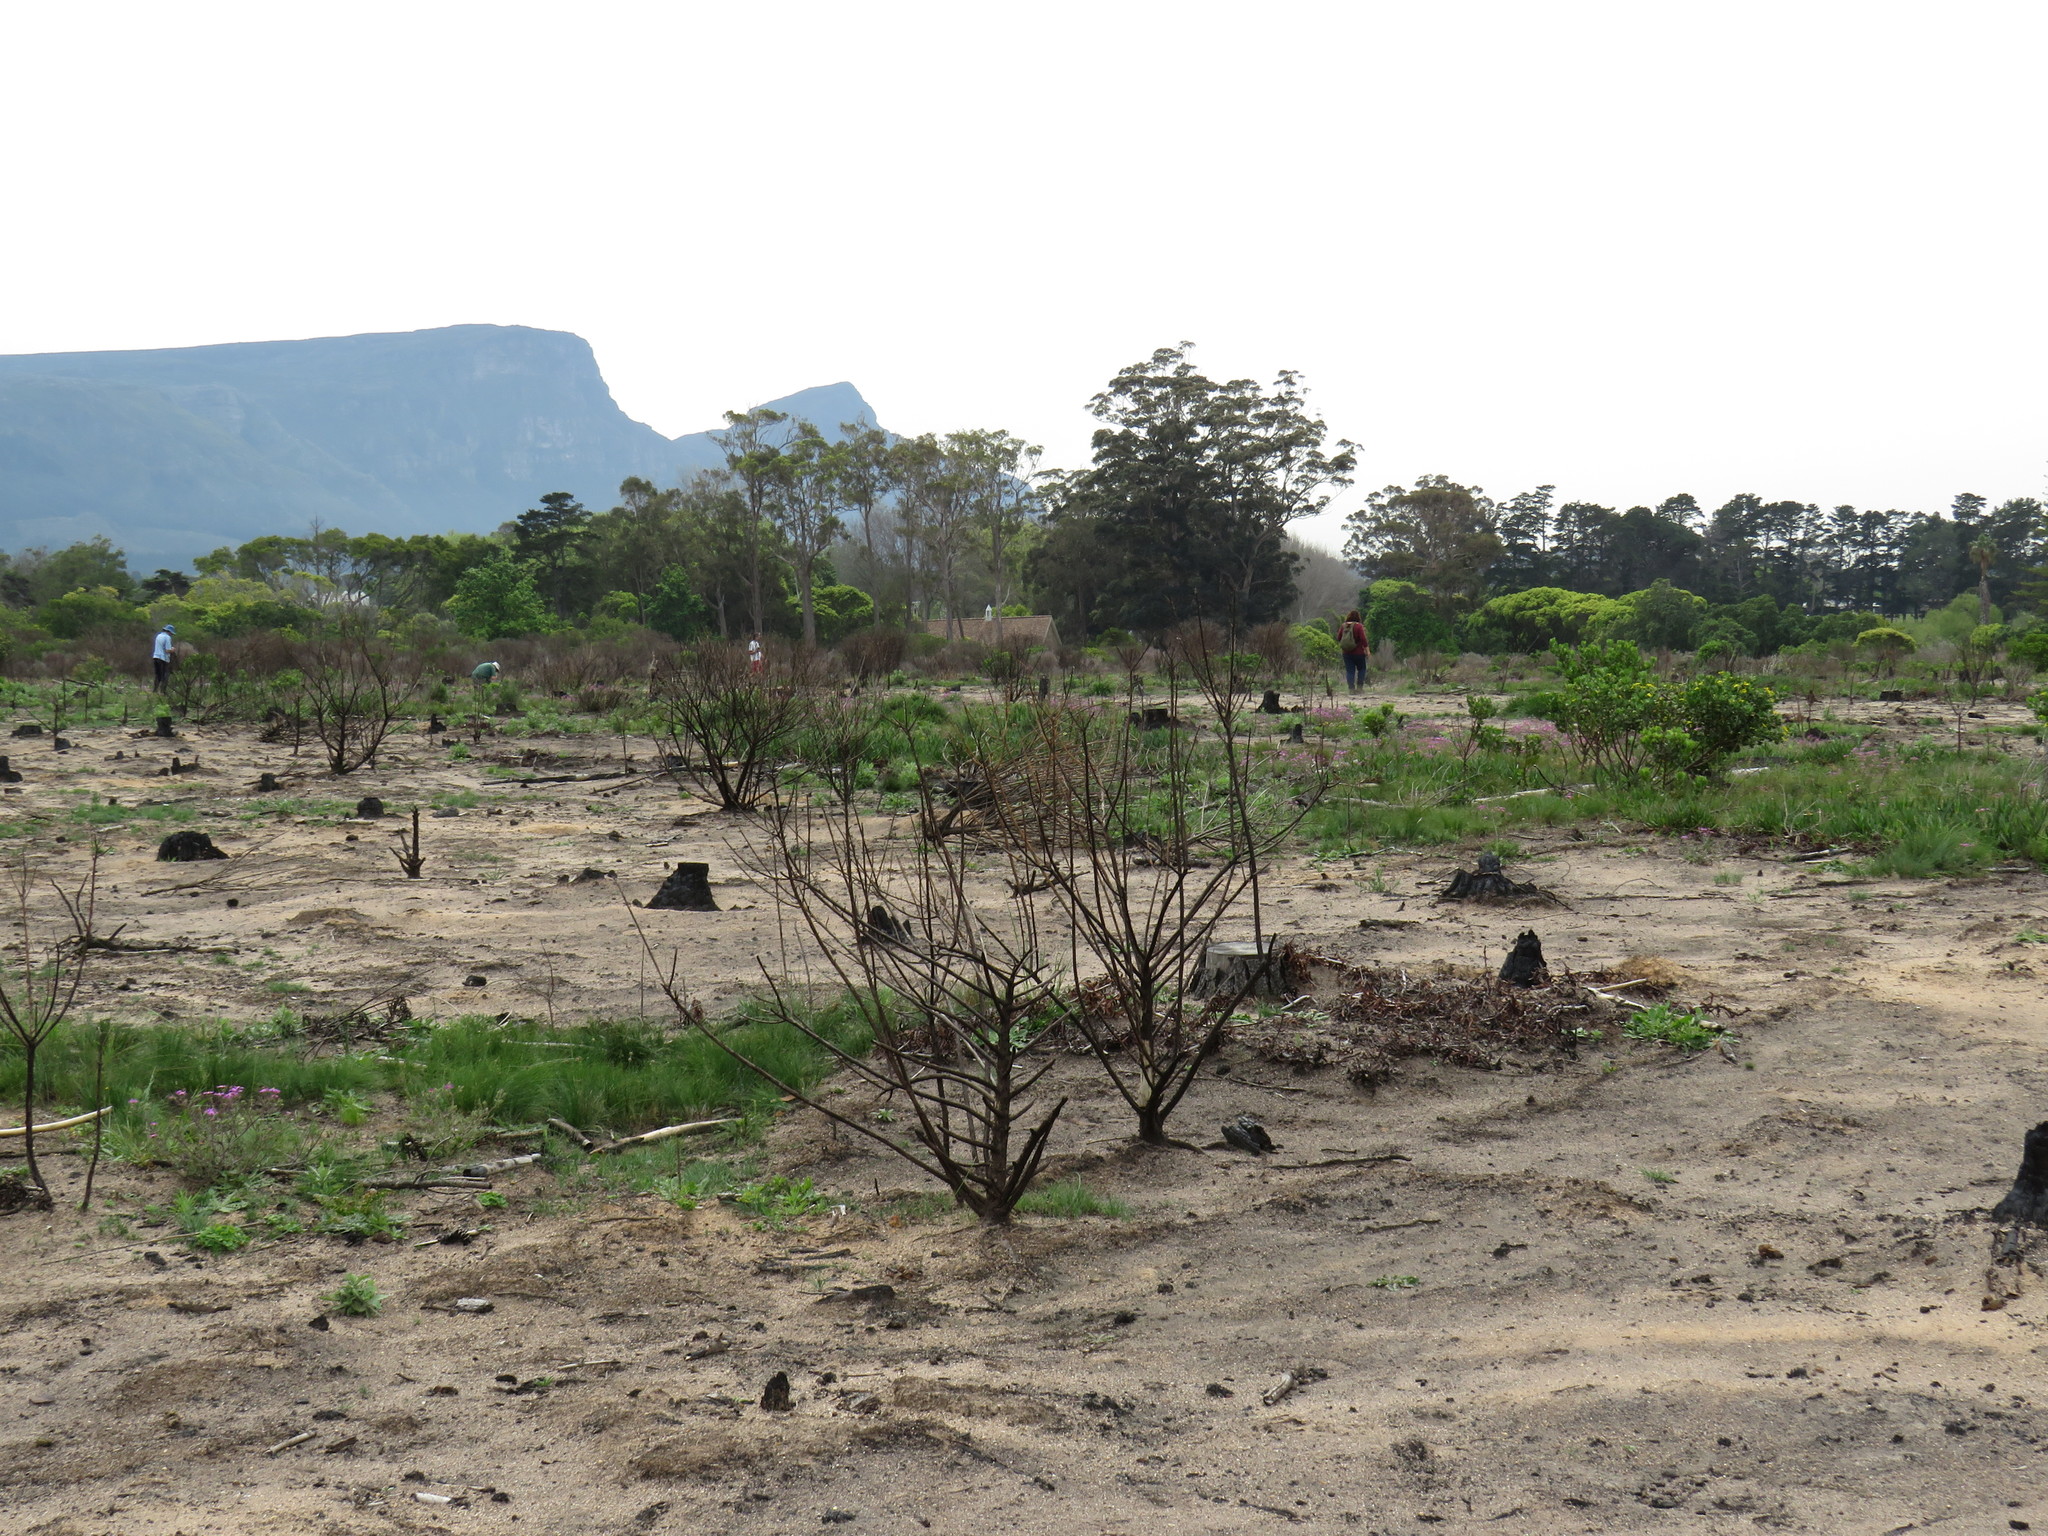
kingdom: Plantae
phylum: Tracheophyta
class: Magnoliopsida
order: Asterales
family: Asteraceae
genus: Osteospermum
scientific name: Osteospermum moniliferum
